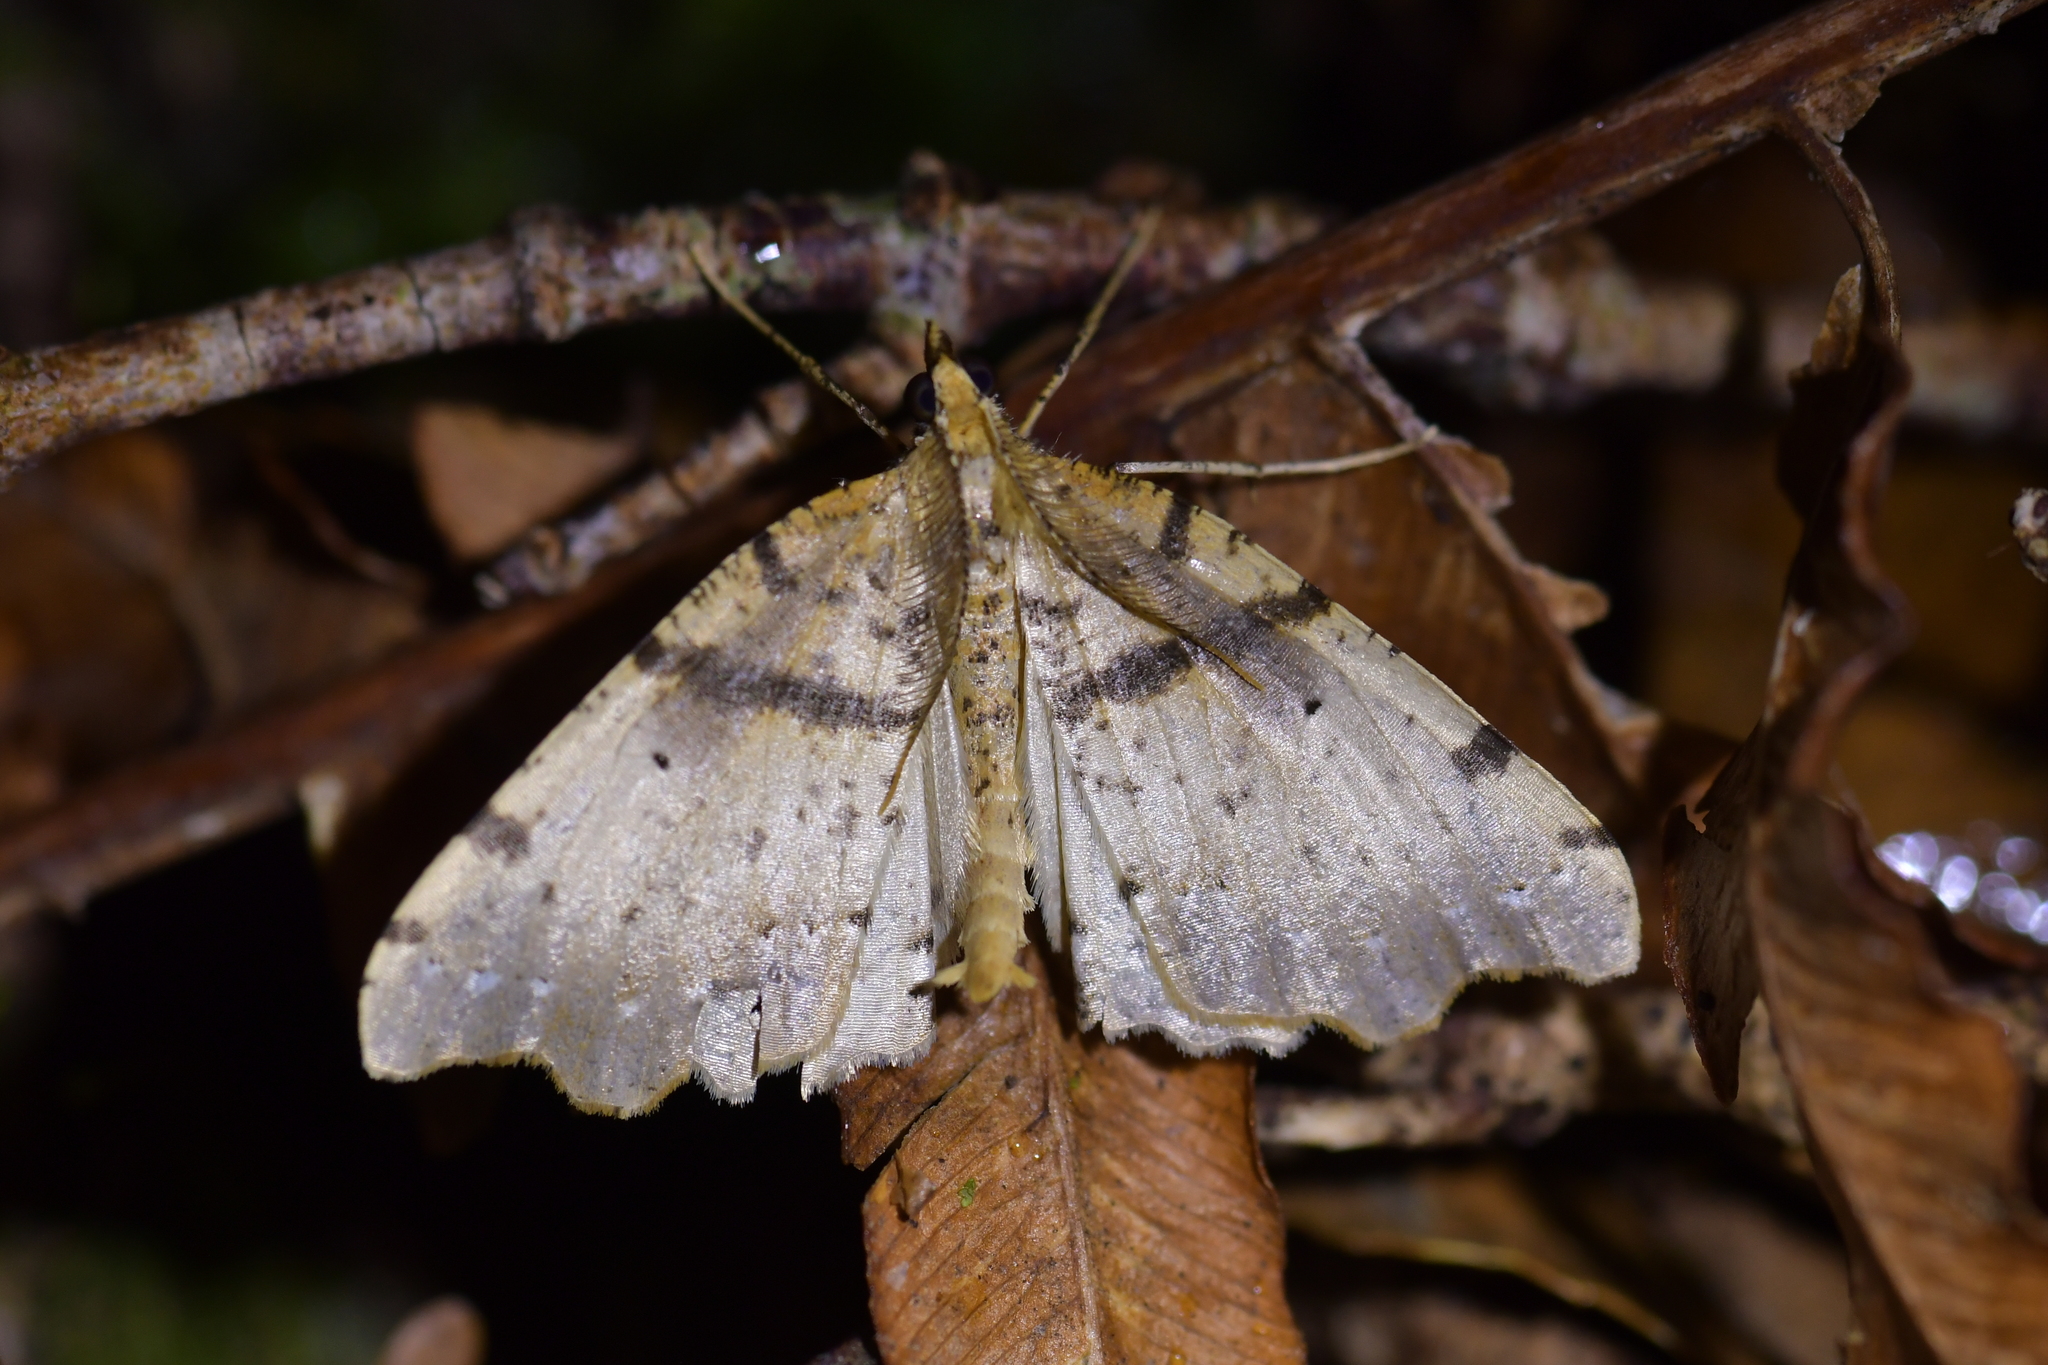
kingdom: Animalia
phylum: Arthropoda
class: Insecta
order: Lepidoptera
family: Geometridae
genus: Chalastra
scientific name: Chalastra pellurgata
